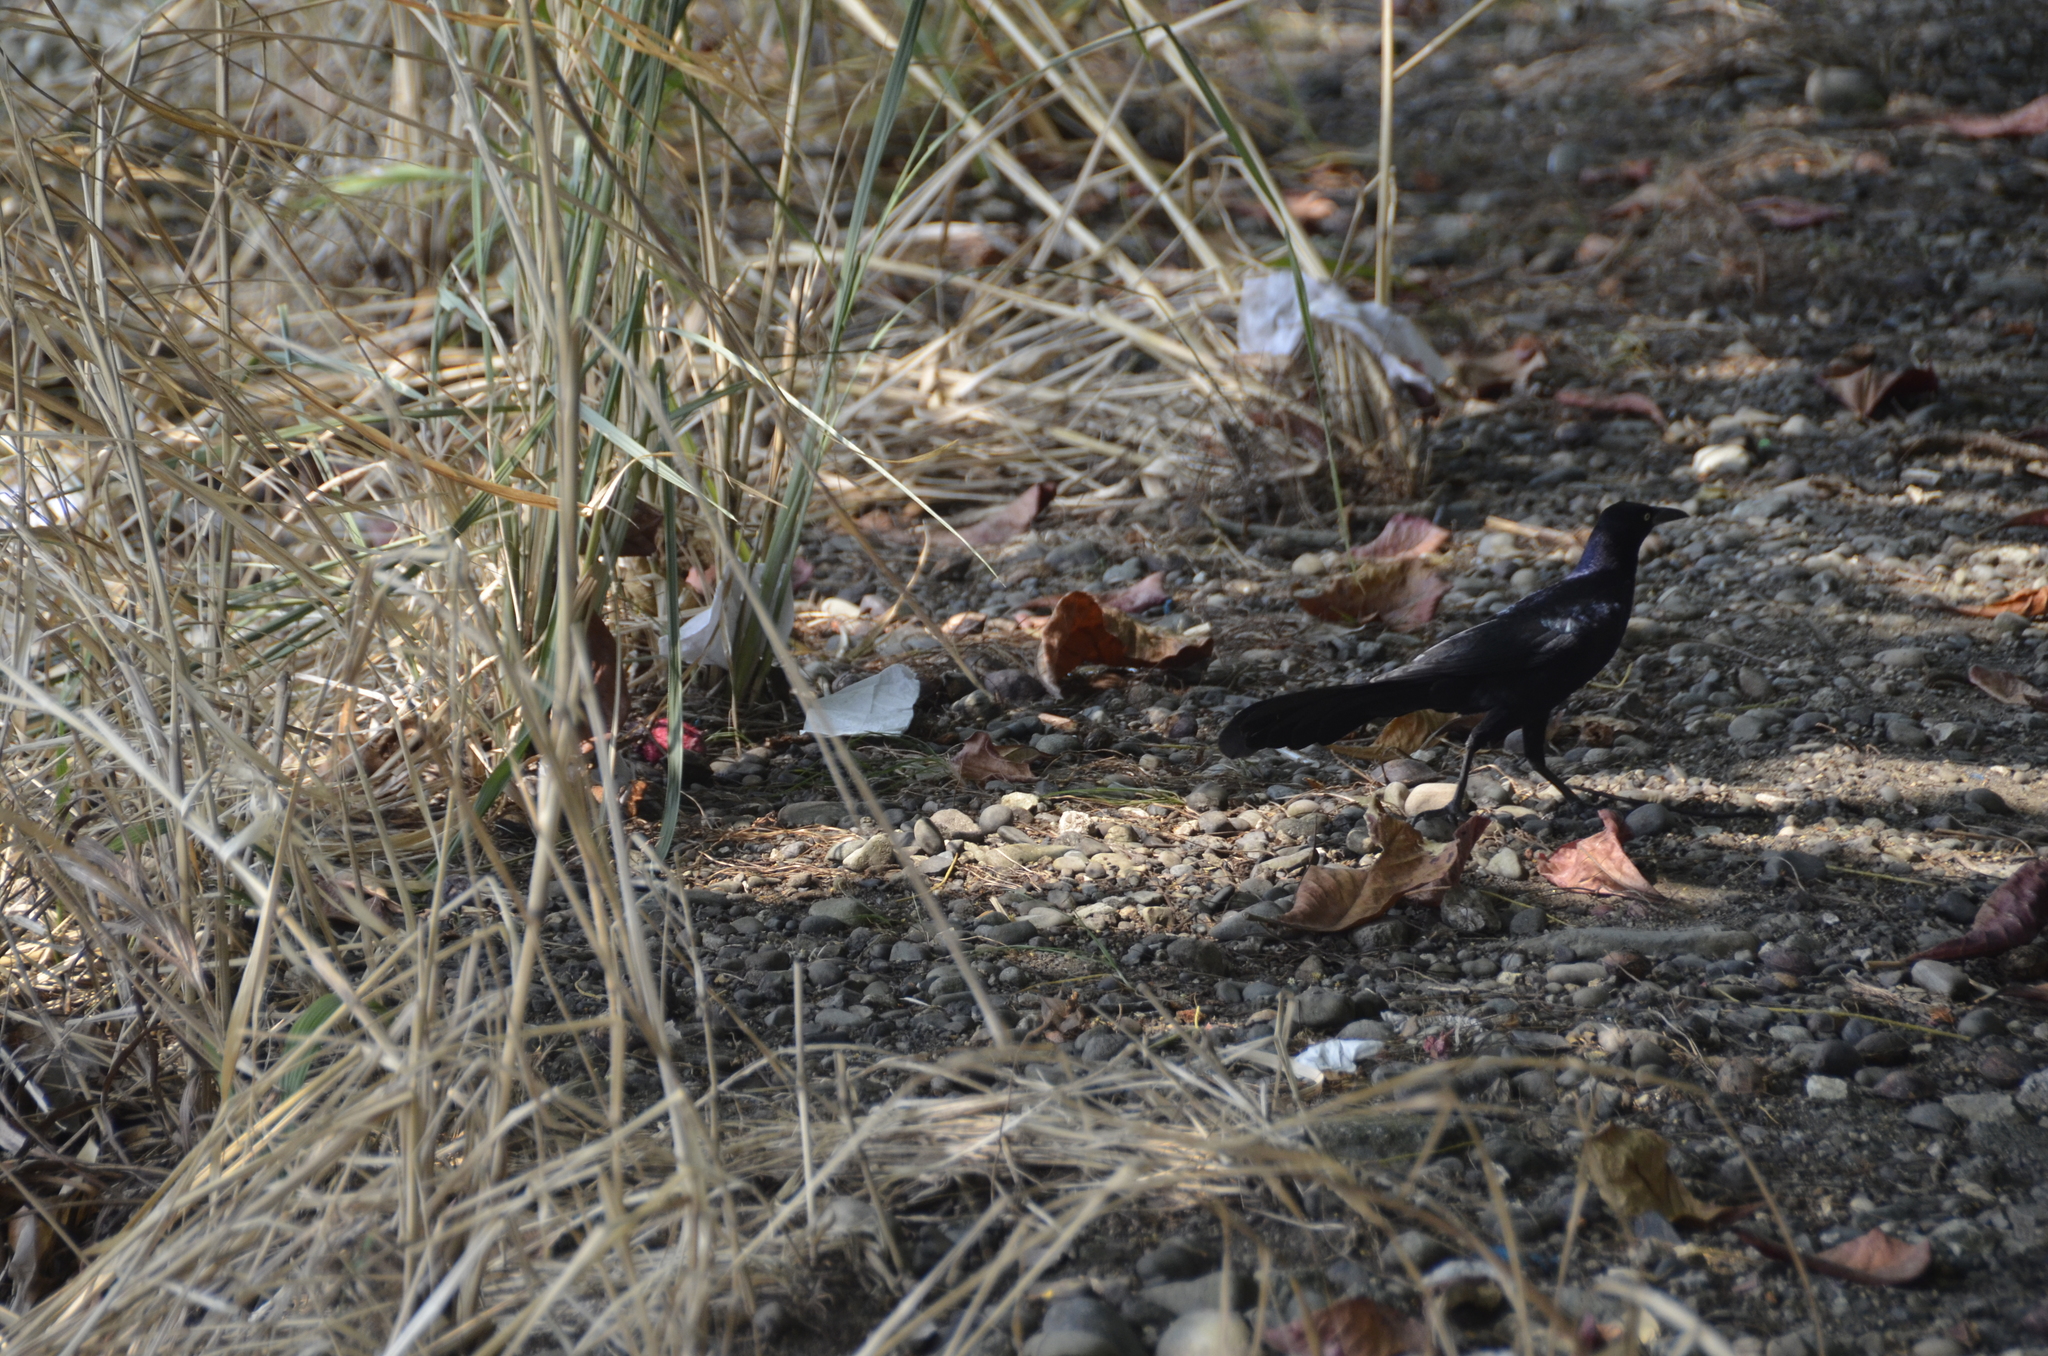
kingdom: Animalia
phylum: Chordata
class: Aves
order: Passeriformes
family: Icteridae
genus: Quiscalus
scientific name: Quiscalus mexicanus
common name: Great-tailed grackle
